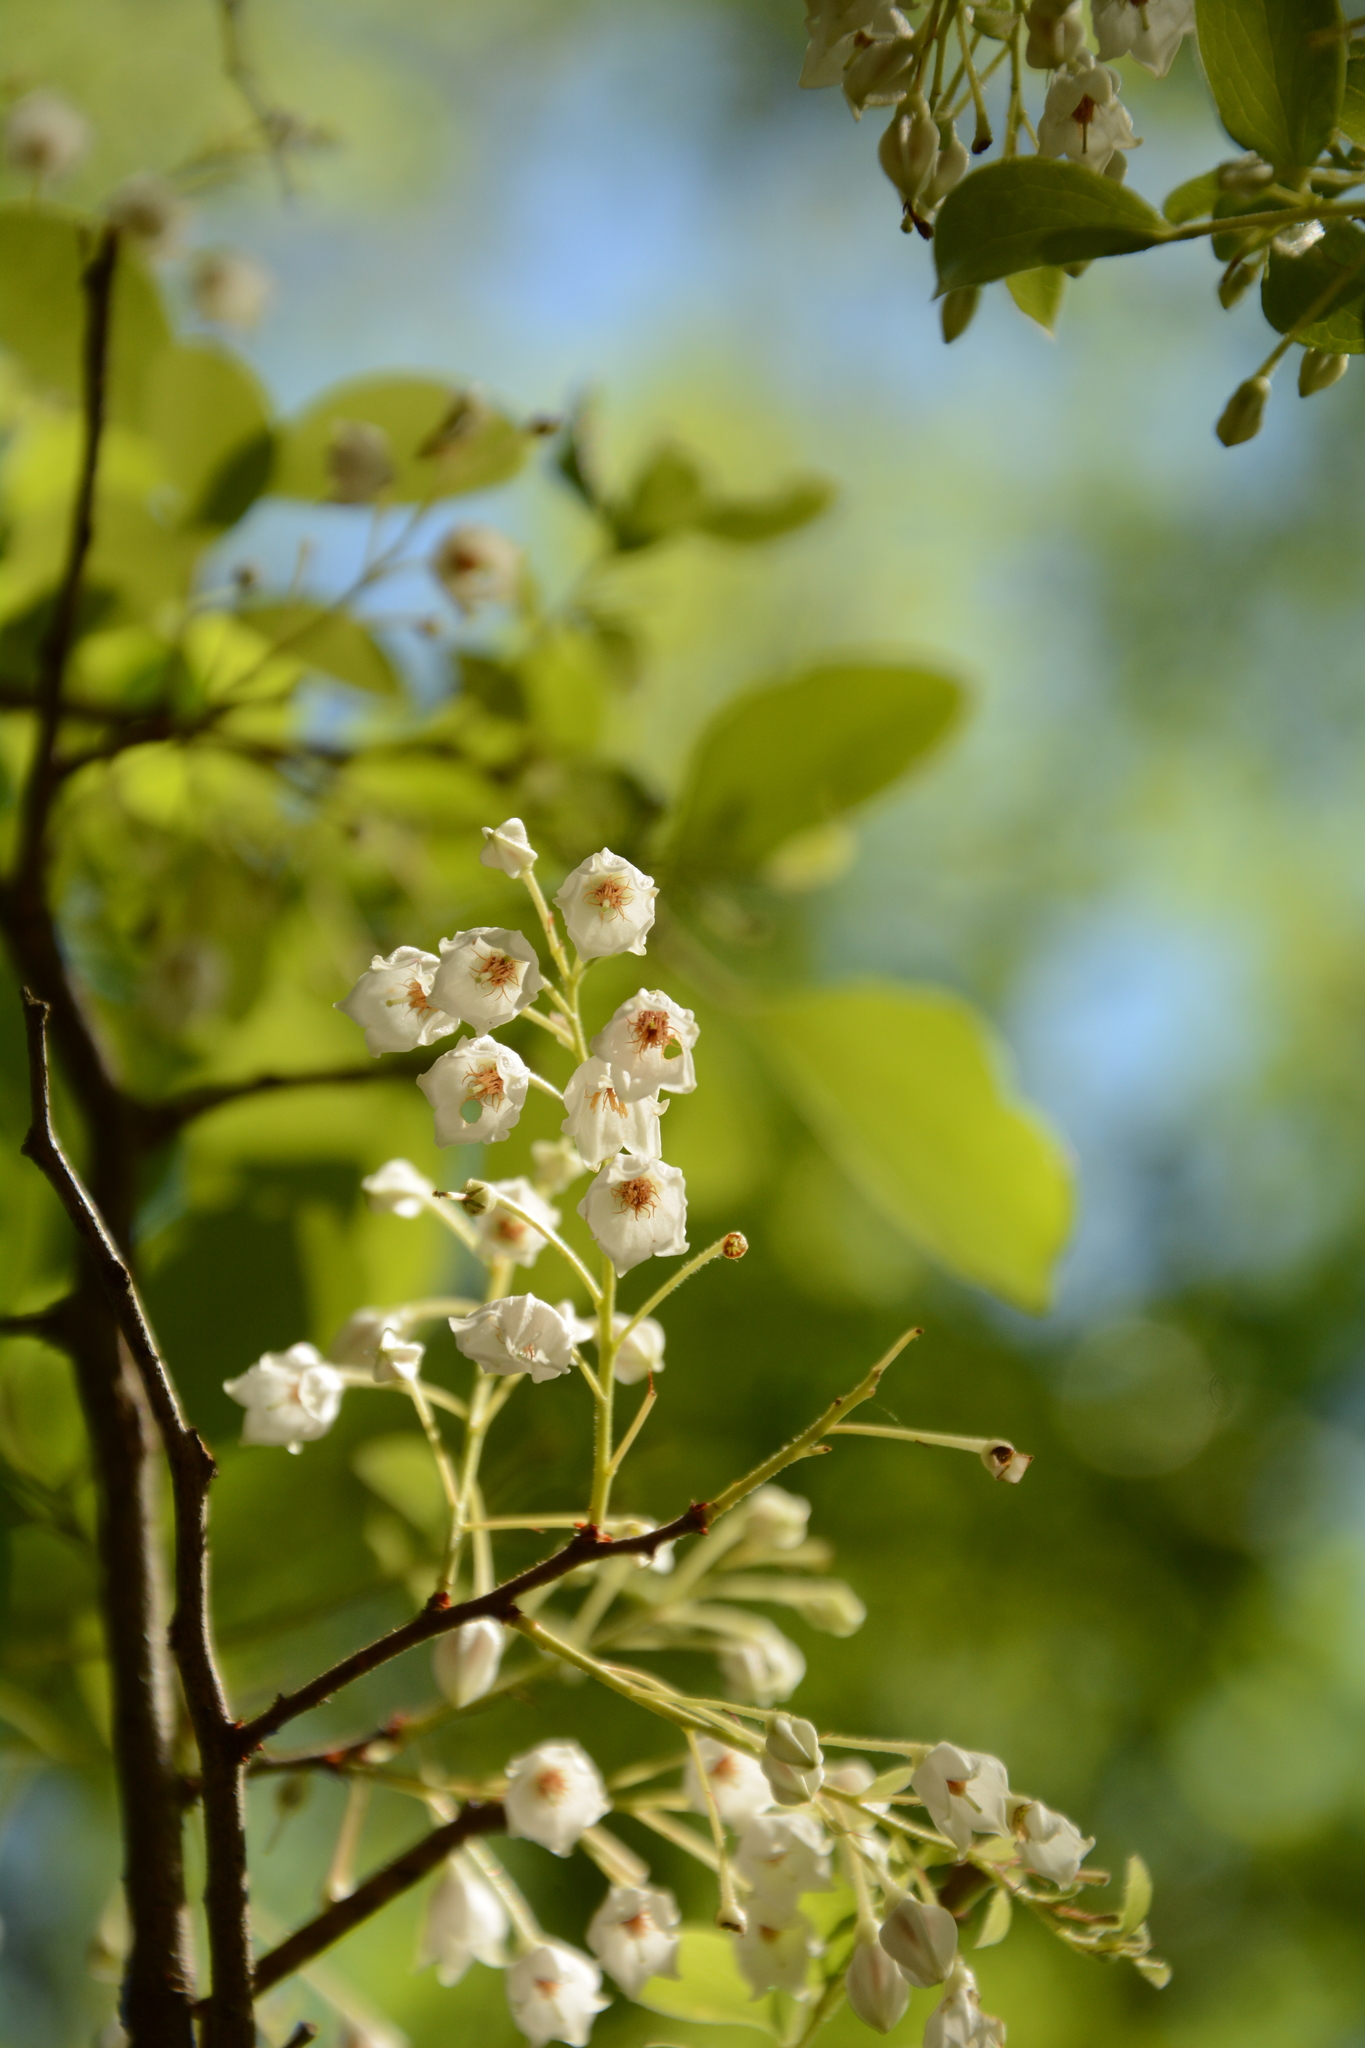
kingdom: Plantae
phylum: Tracheophyta
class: Magnoliopsida
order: Ericales
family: Ericaceae
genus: Vaccinium
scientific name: Vaccinium arboreum
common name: Farkleberry
